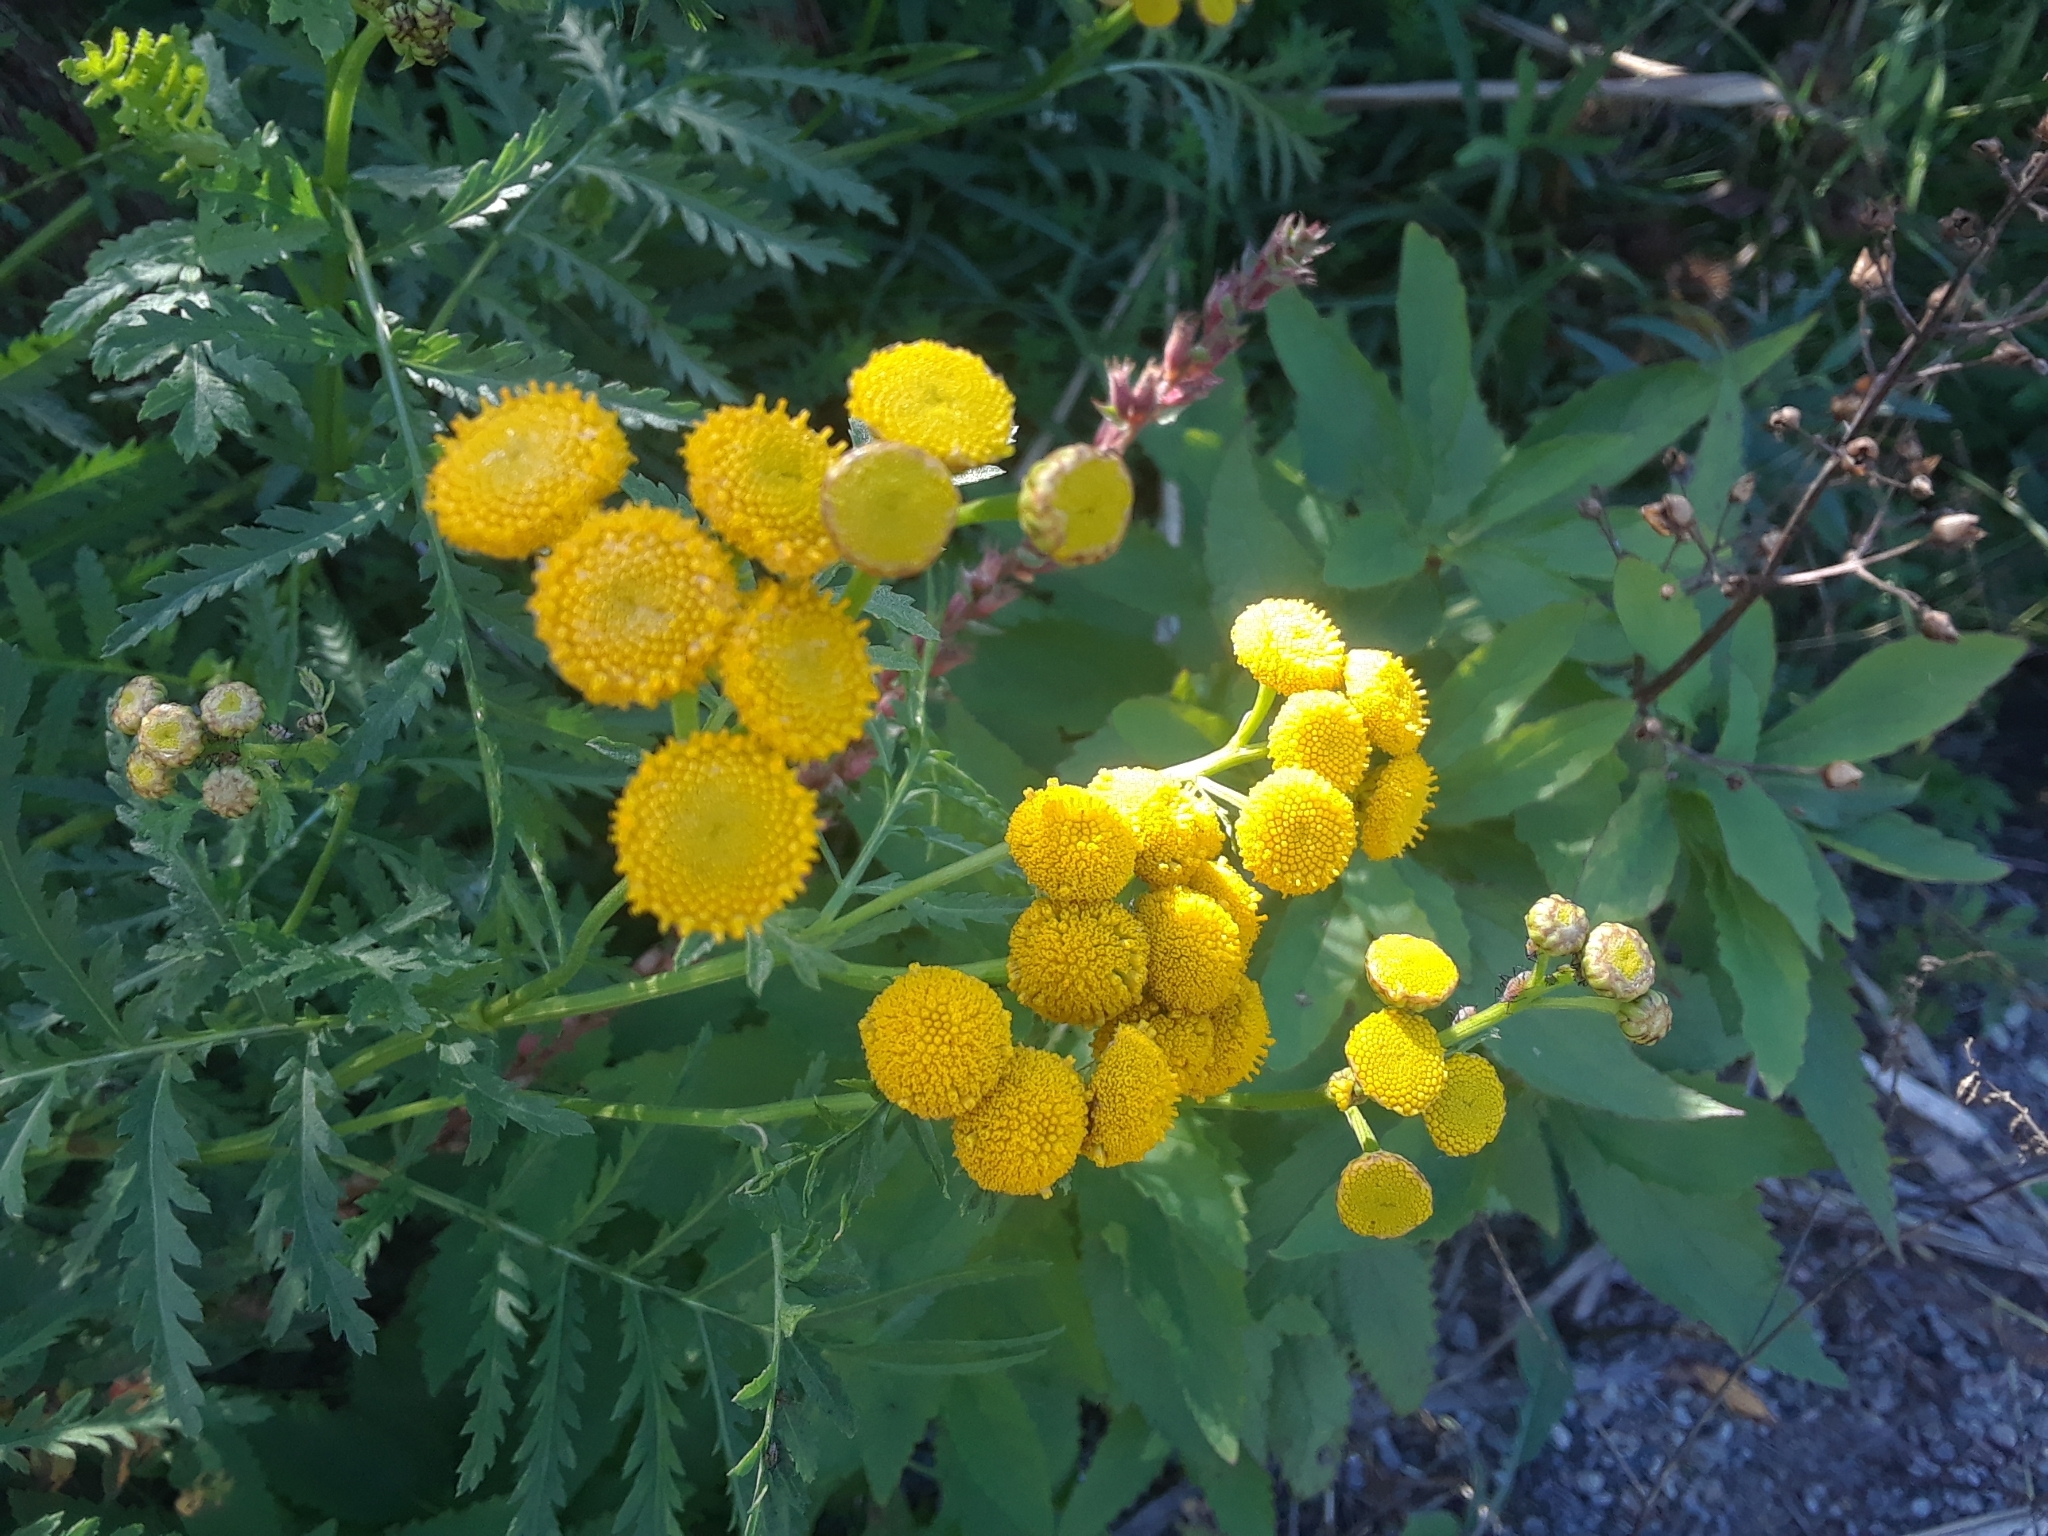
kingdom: Plantae
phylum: Tracheophyta
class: Magnoliopsida
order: Asterales
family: Asteraceae
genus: Tanacetum
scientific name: Tanacetum vulgare
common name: Common tansy
